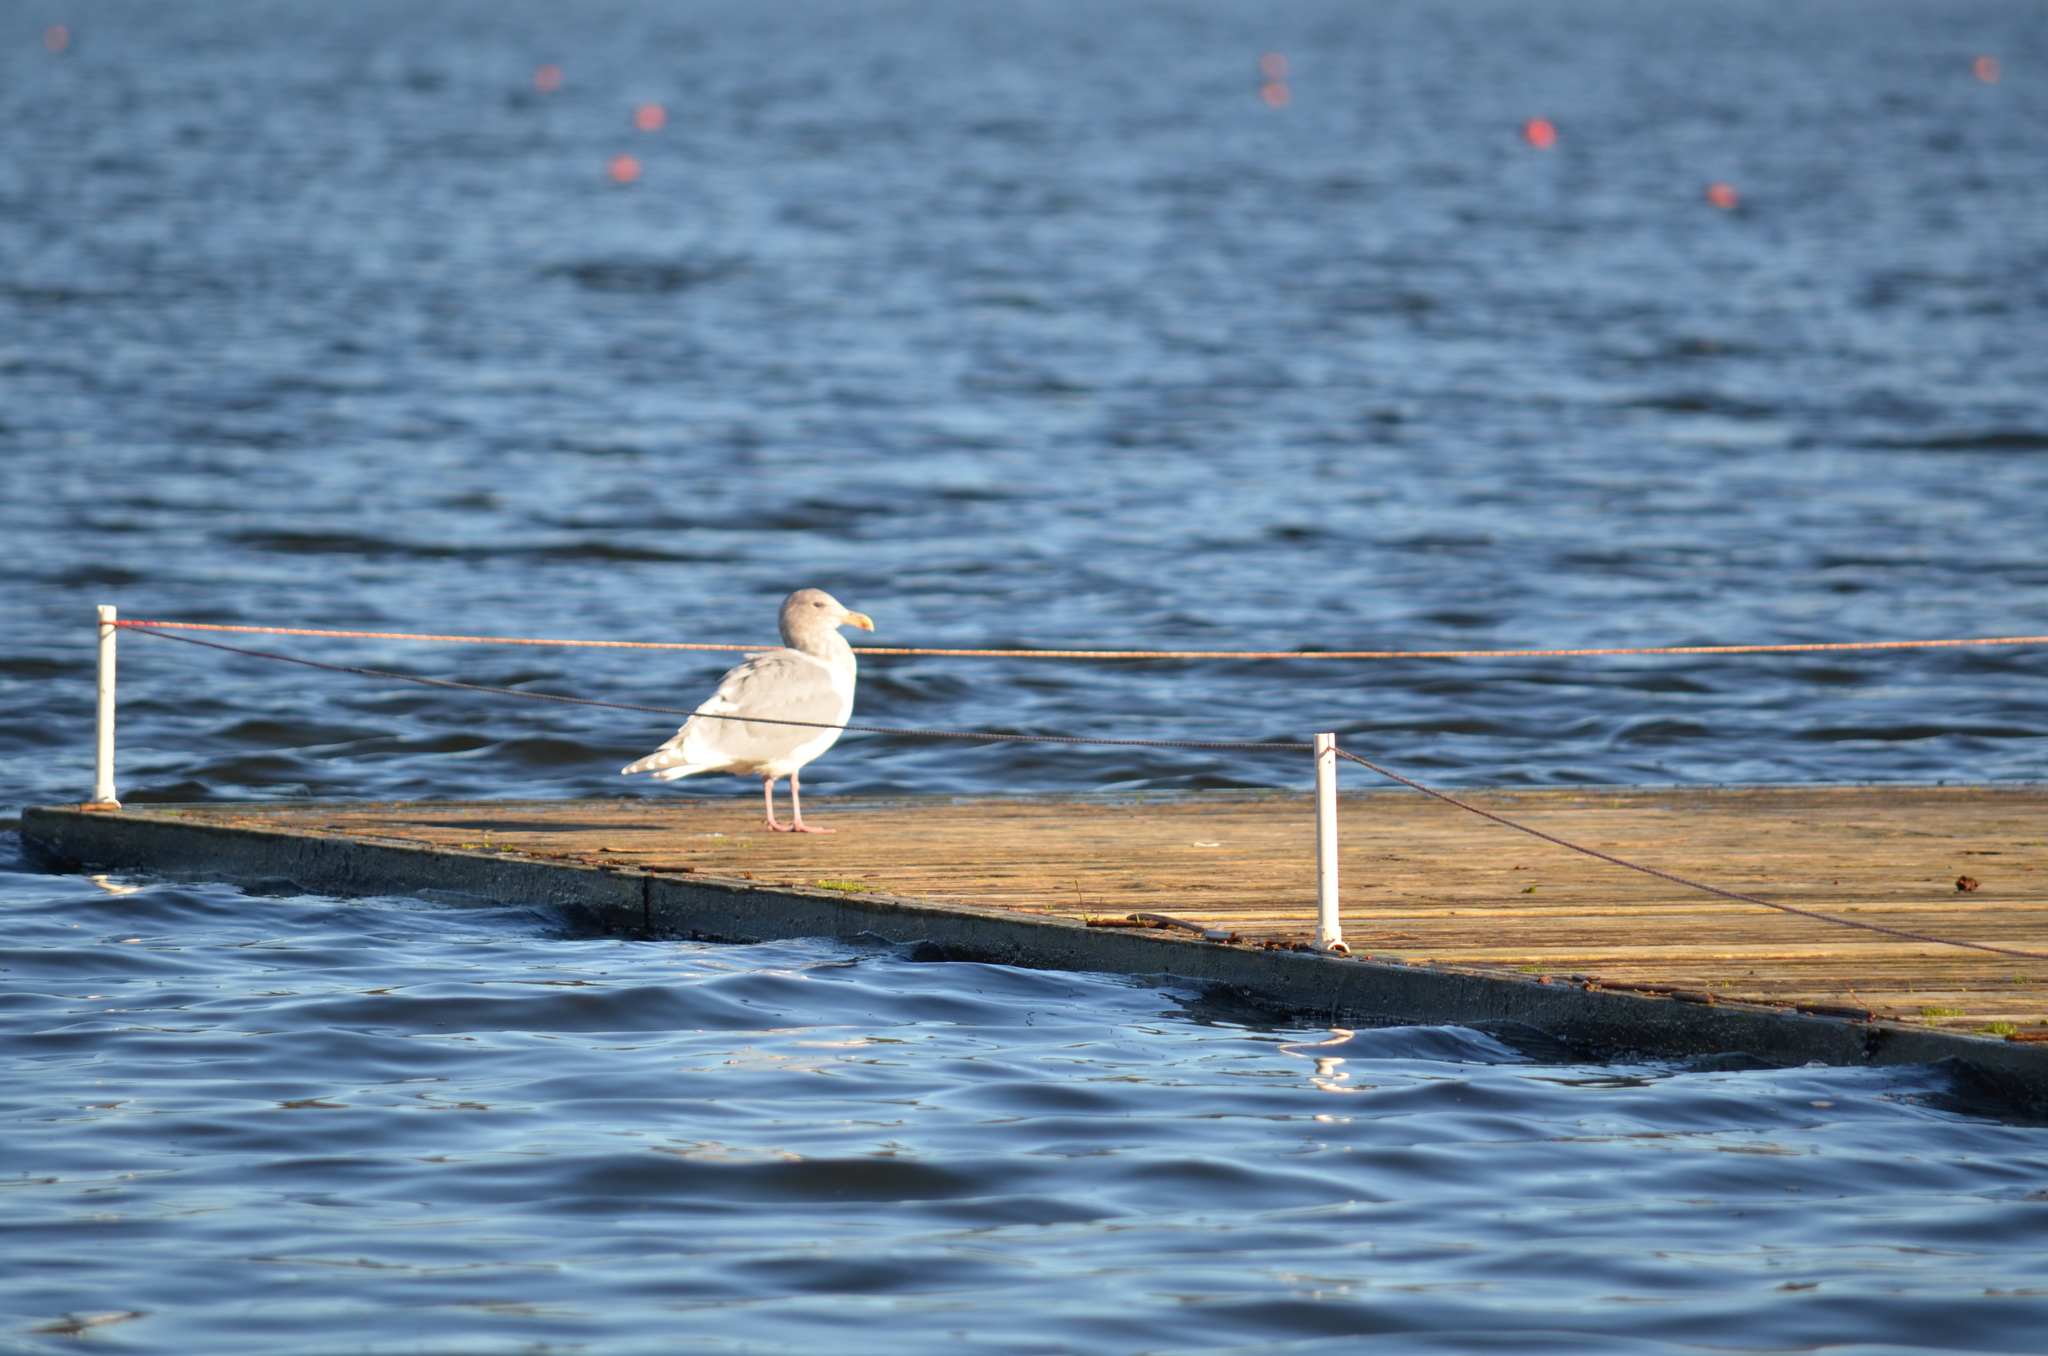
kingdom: Animalia
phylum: Chordata
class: Aves
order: Charadriiformes
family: Laridae
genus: Larus
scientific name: Larus glaucescens
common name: Glaucous-winged gull
